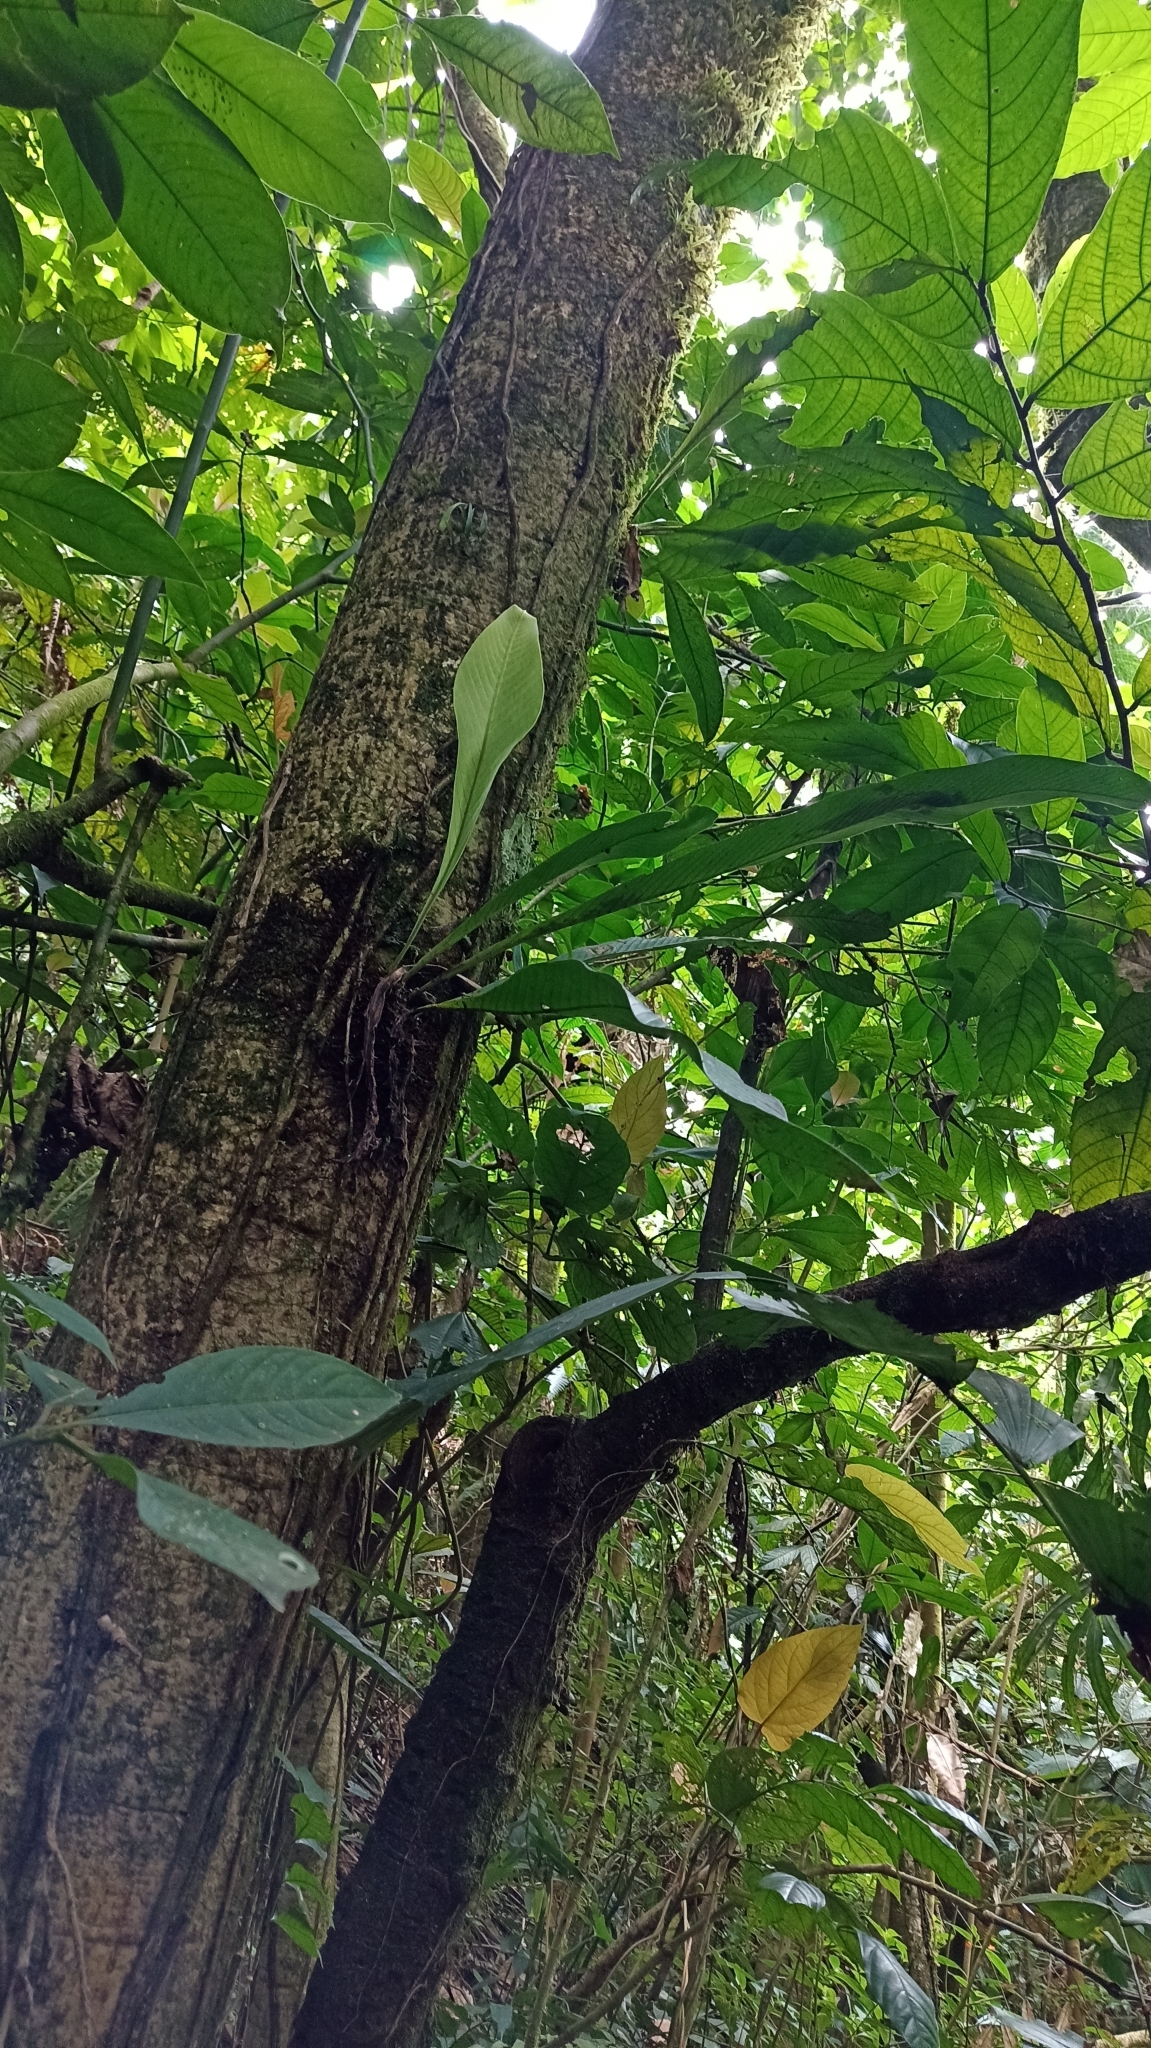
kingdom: Plantae
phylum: Tracheophyta
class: Magnoliopsida
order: Lamiales
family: Lamiaceae
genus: Gmelina
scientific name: Gmelina arborea
